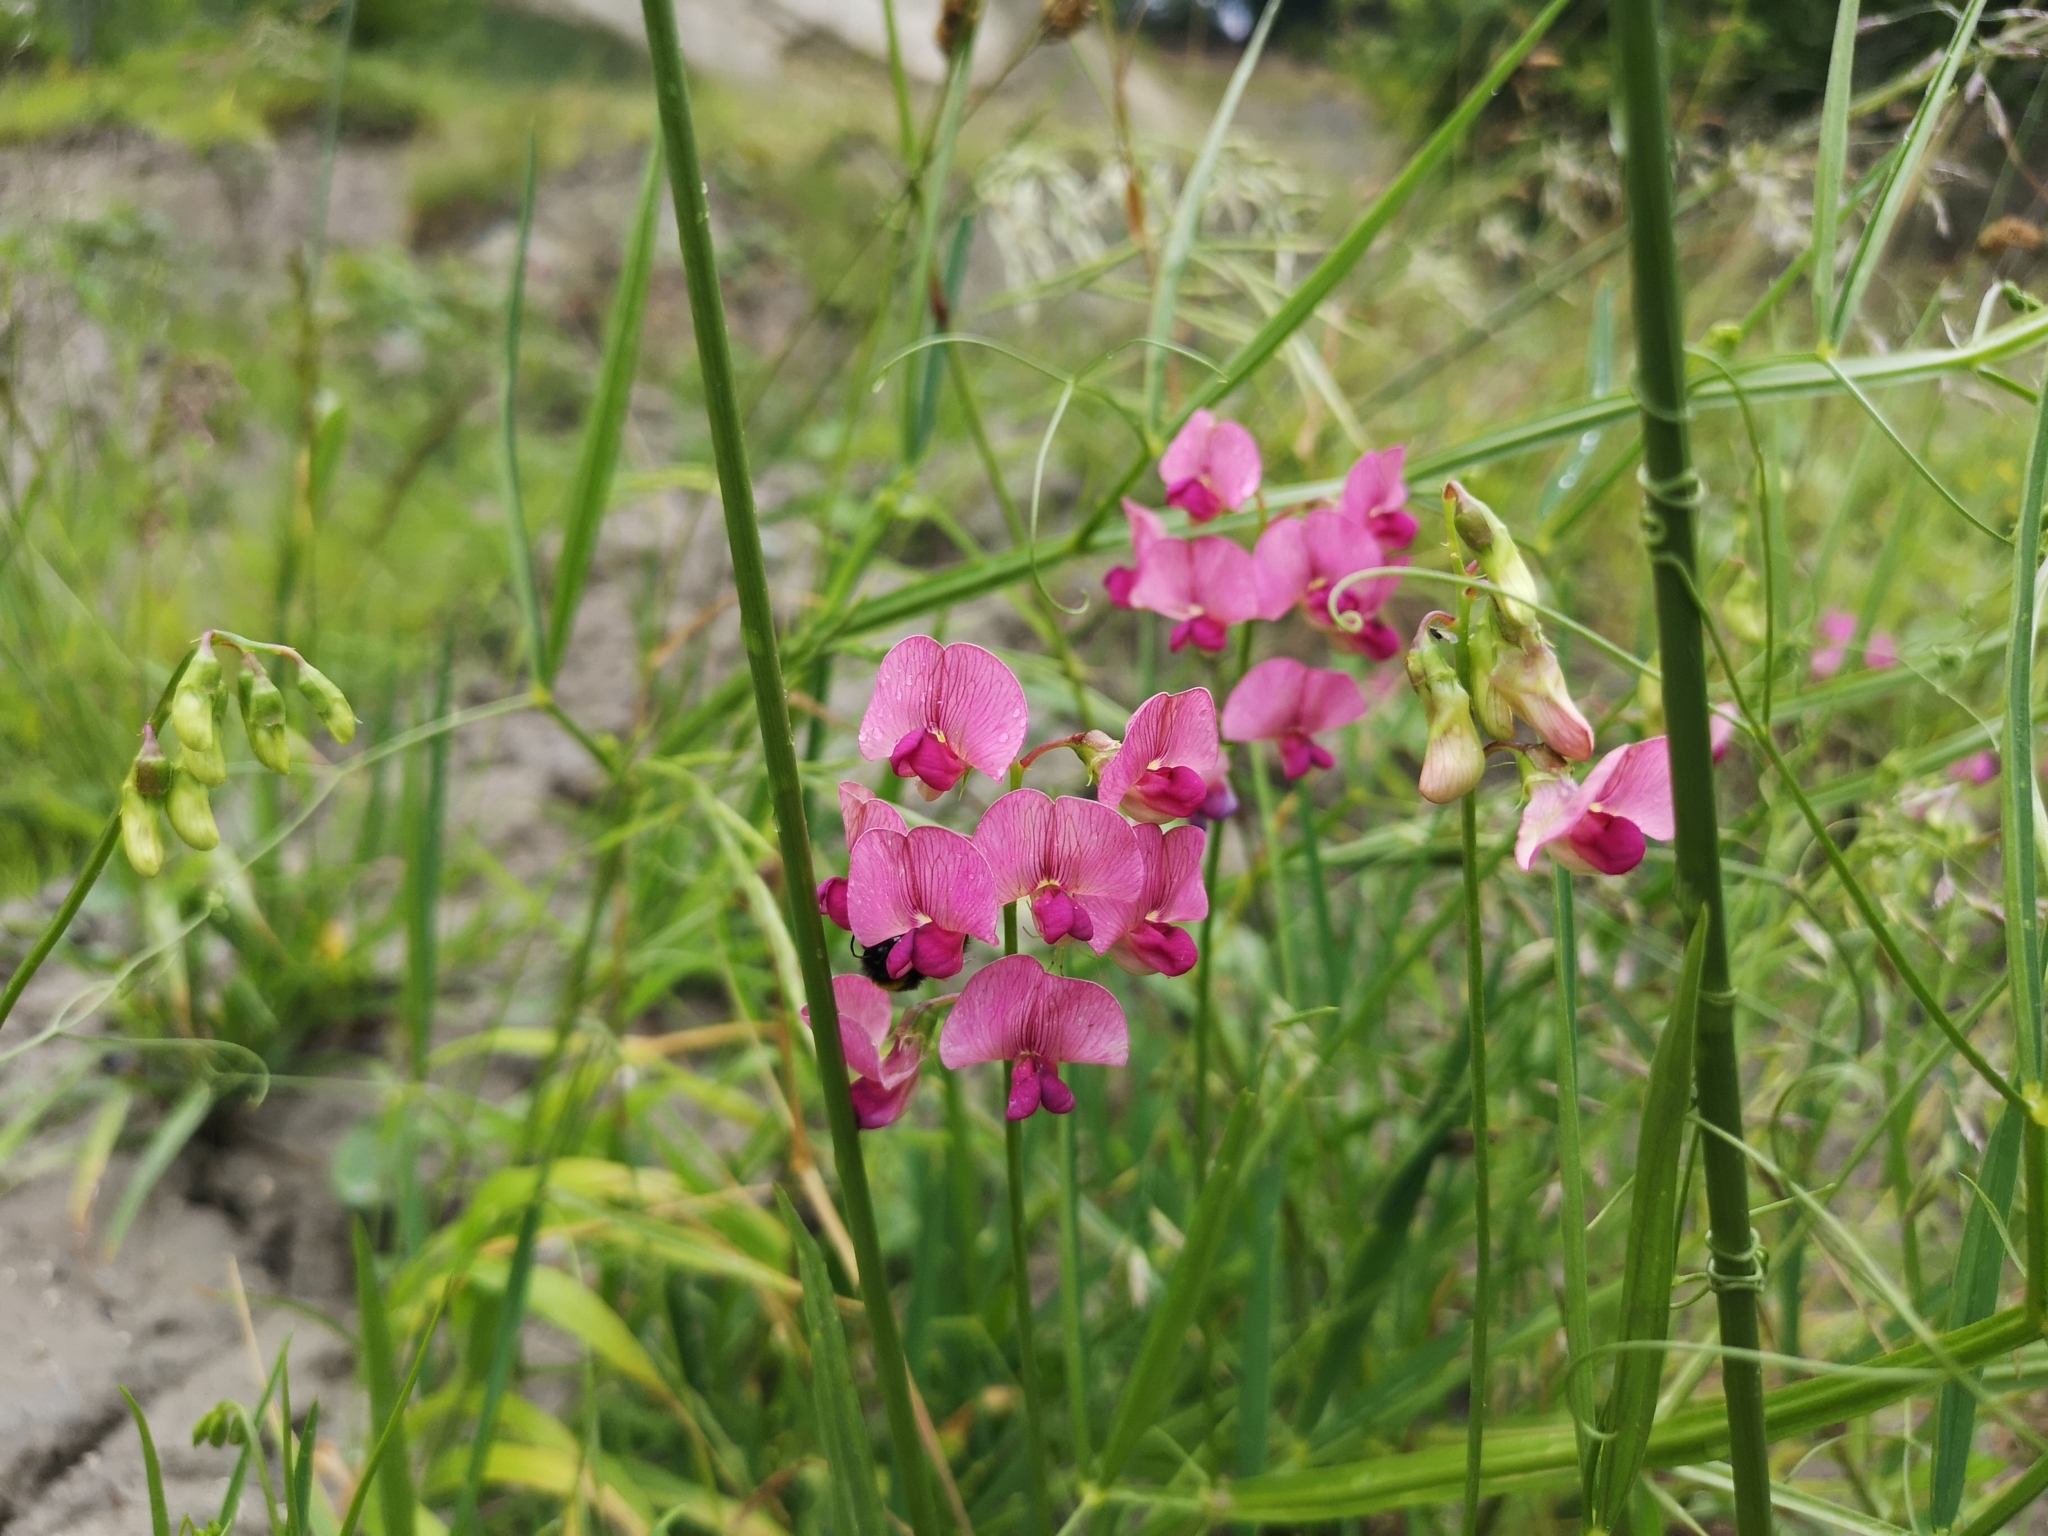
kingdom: Plantae
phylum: Tracheophyta
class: Magnoliopsida
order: Fabales
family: Fabaceae
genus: Lathyrus
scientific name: Lathyrus sylvestris
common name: Flat pea
